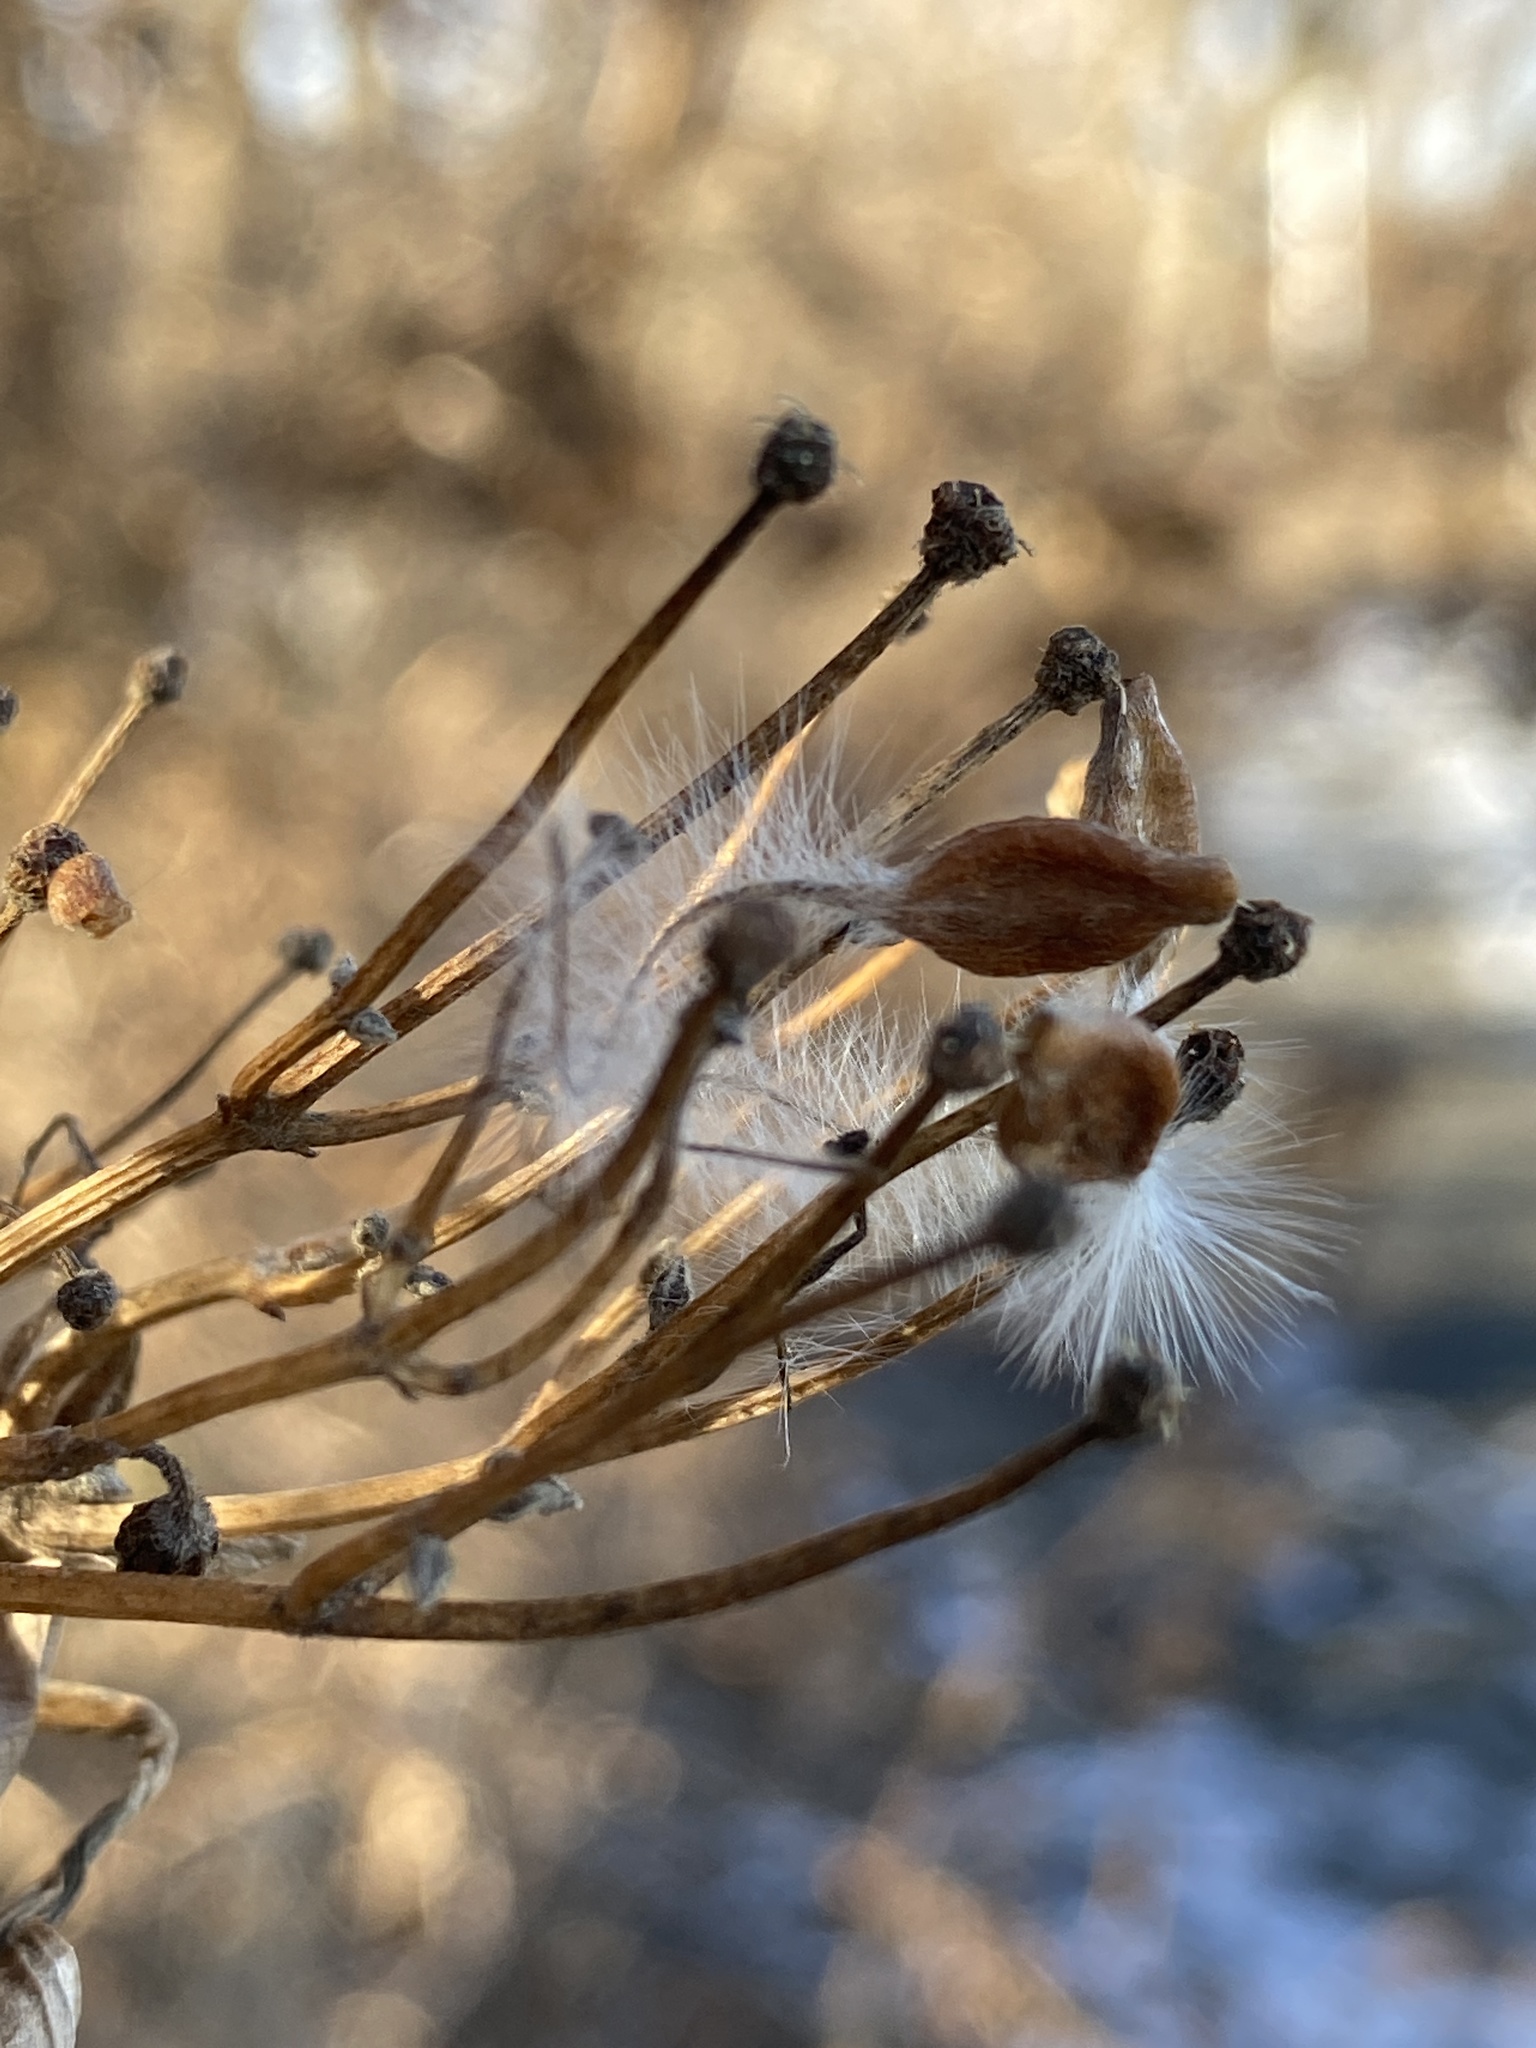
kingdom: Plantae
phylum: Tracheophyta
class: Magnoliopsida
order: Ranunculales
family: Ranunculaceae
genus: Clematis
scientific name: Clematis terniflora
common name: Sweet autumn clematis
